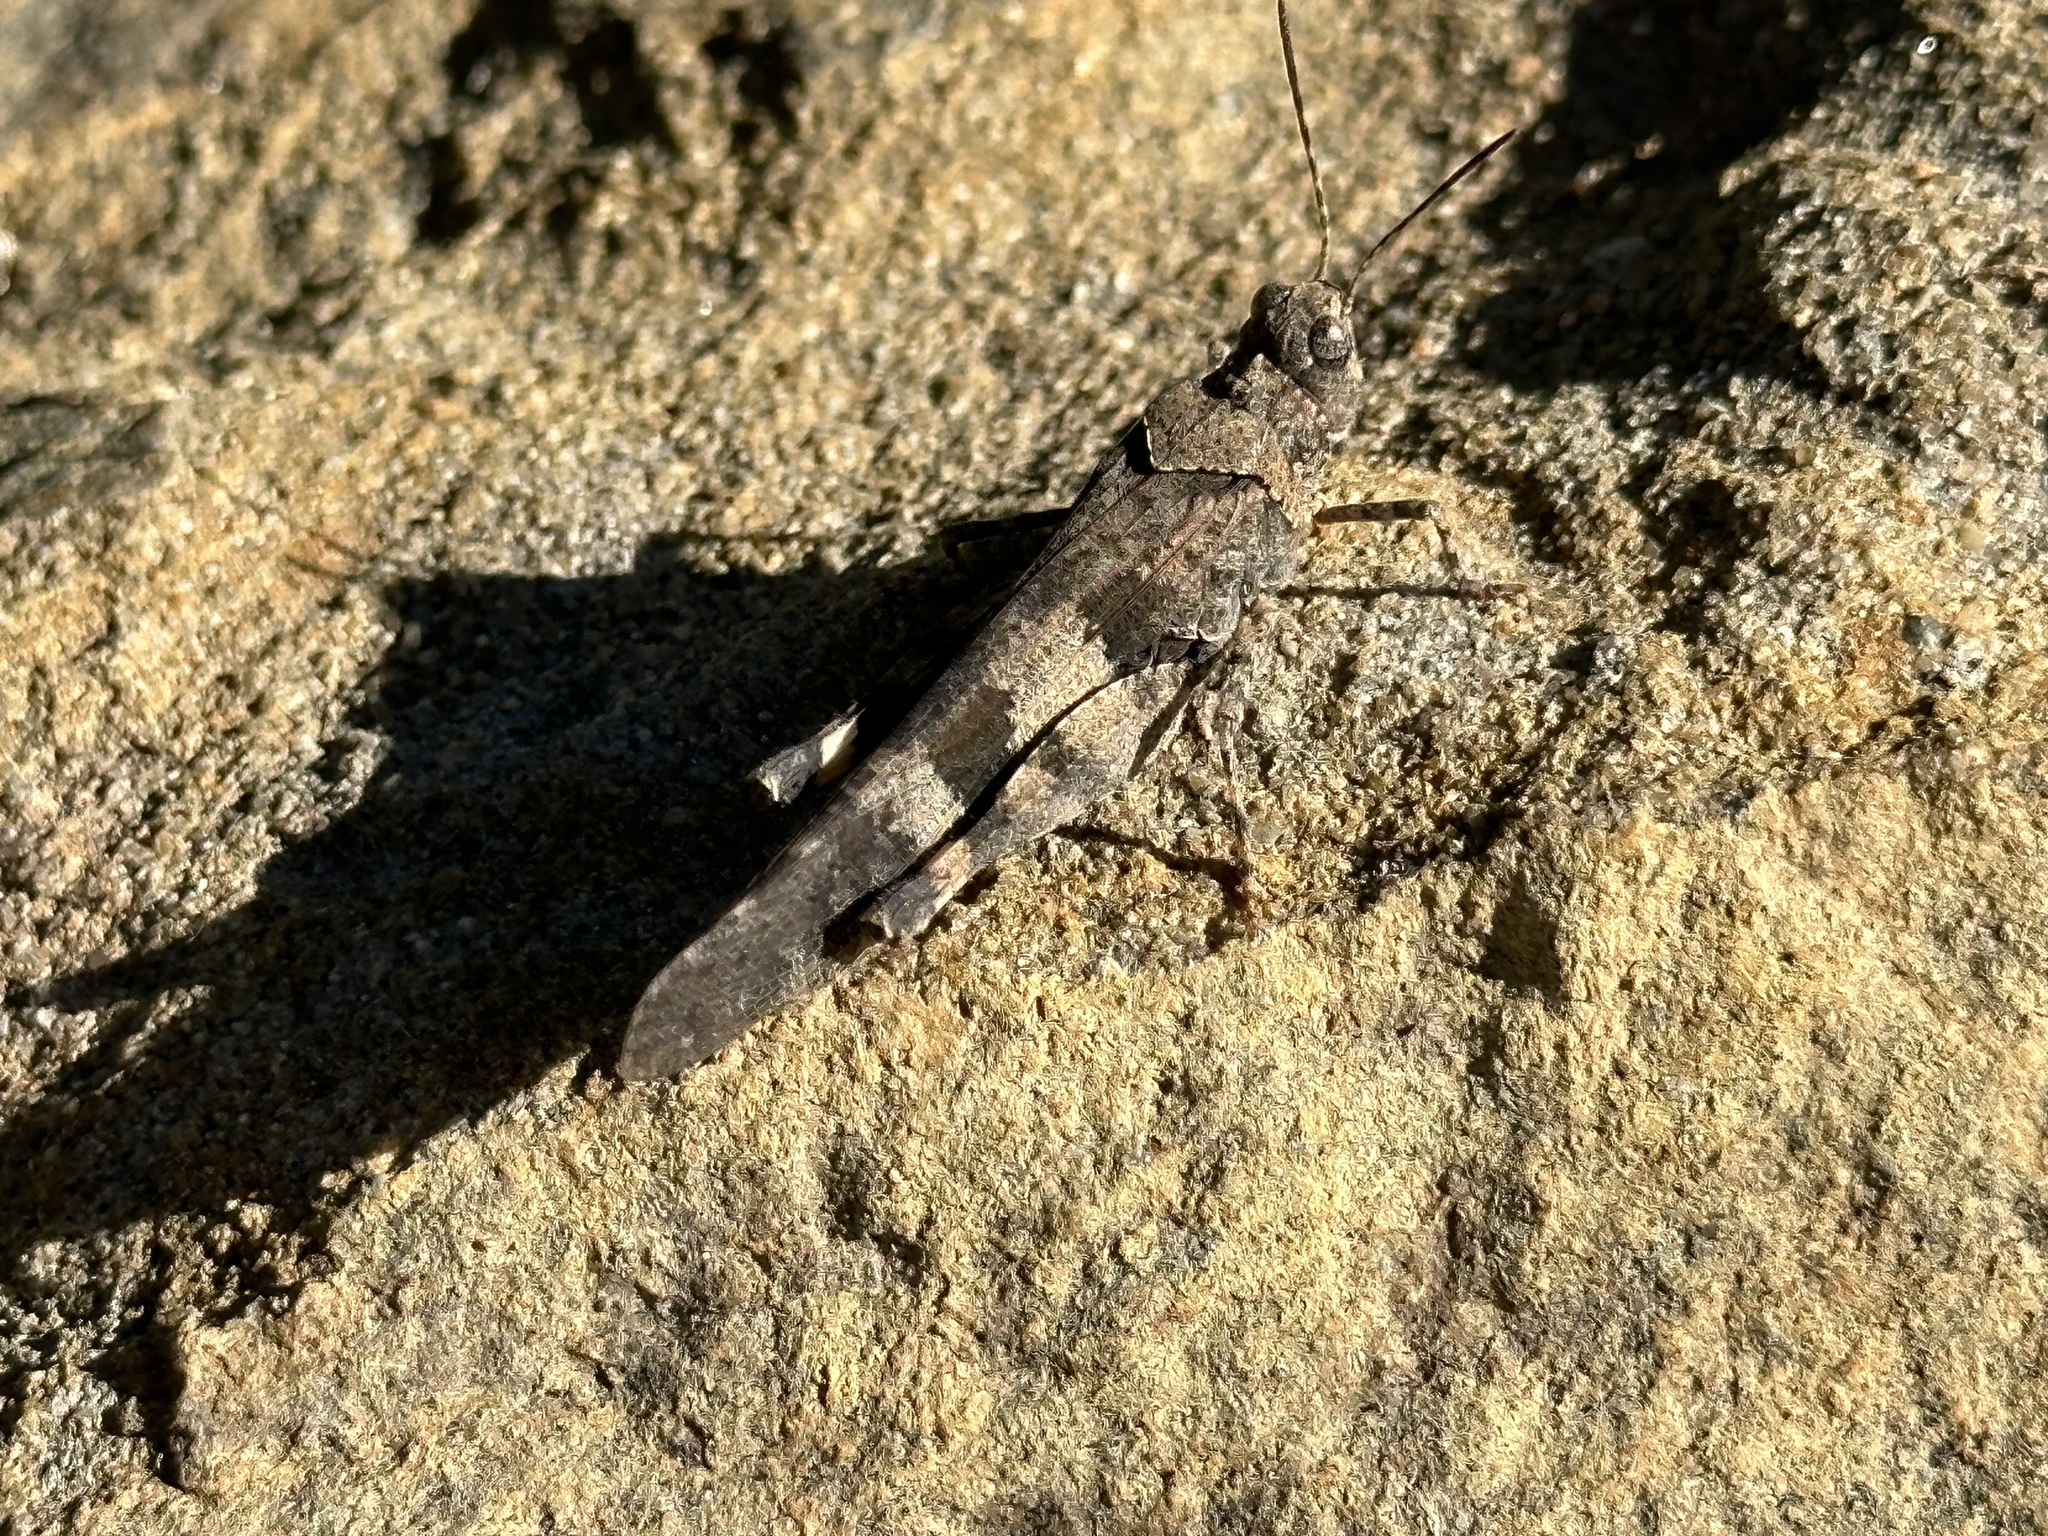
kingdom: Animalia
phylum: Arthropoda
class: Insecta
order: Orthoptera
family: Acrididae
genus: Trimerotropis
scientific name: Trimerotropis fontana
